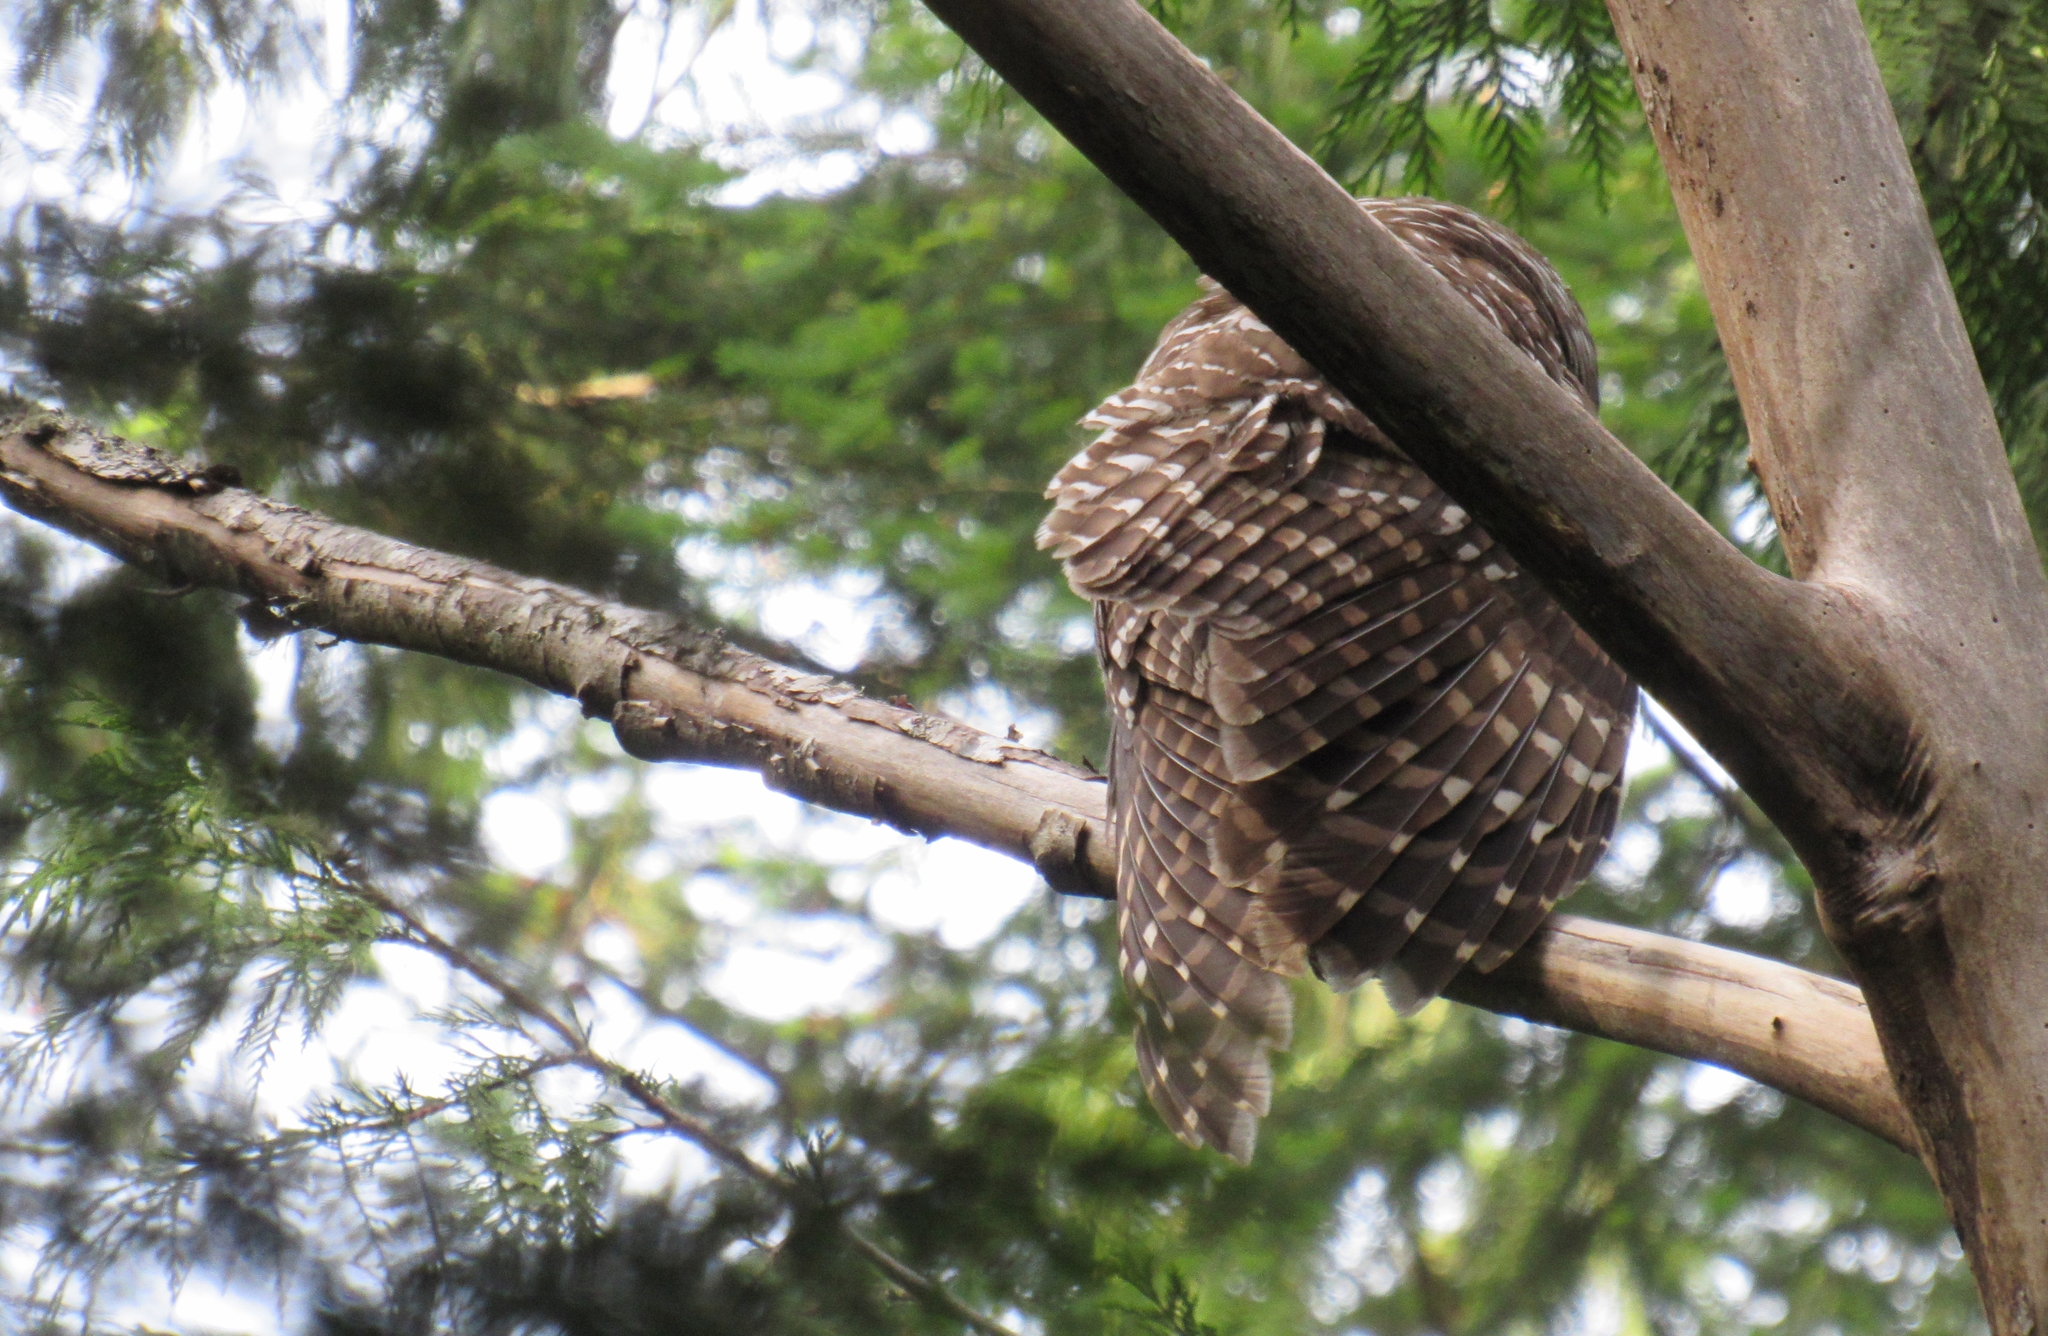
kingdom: Animalia
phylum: Chordata
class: Aves
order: Strigiformes
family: Strigidae
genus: Strix
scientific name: Strix varia
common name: Barred owl
